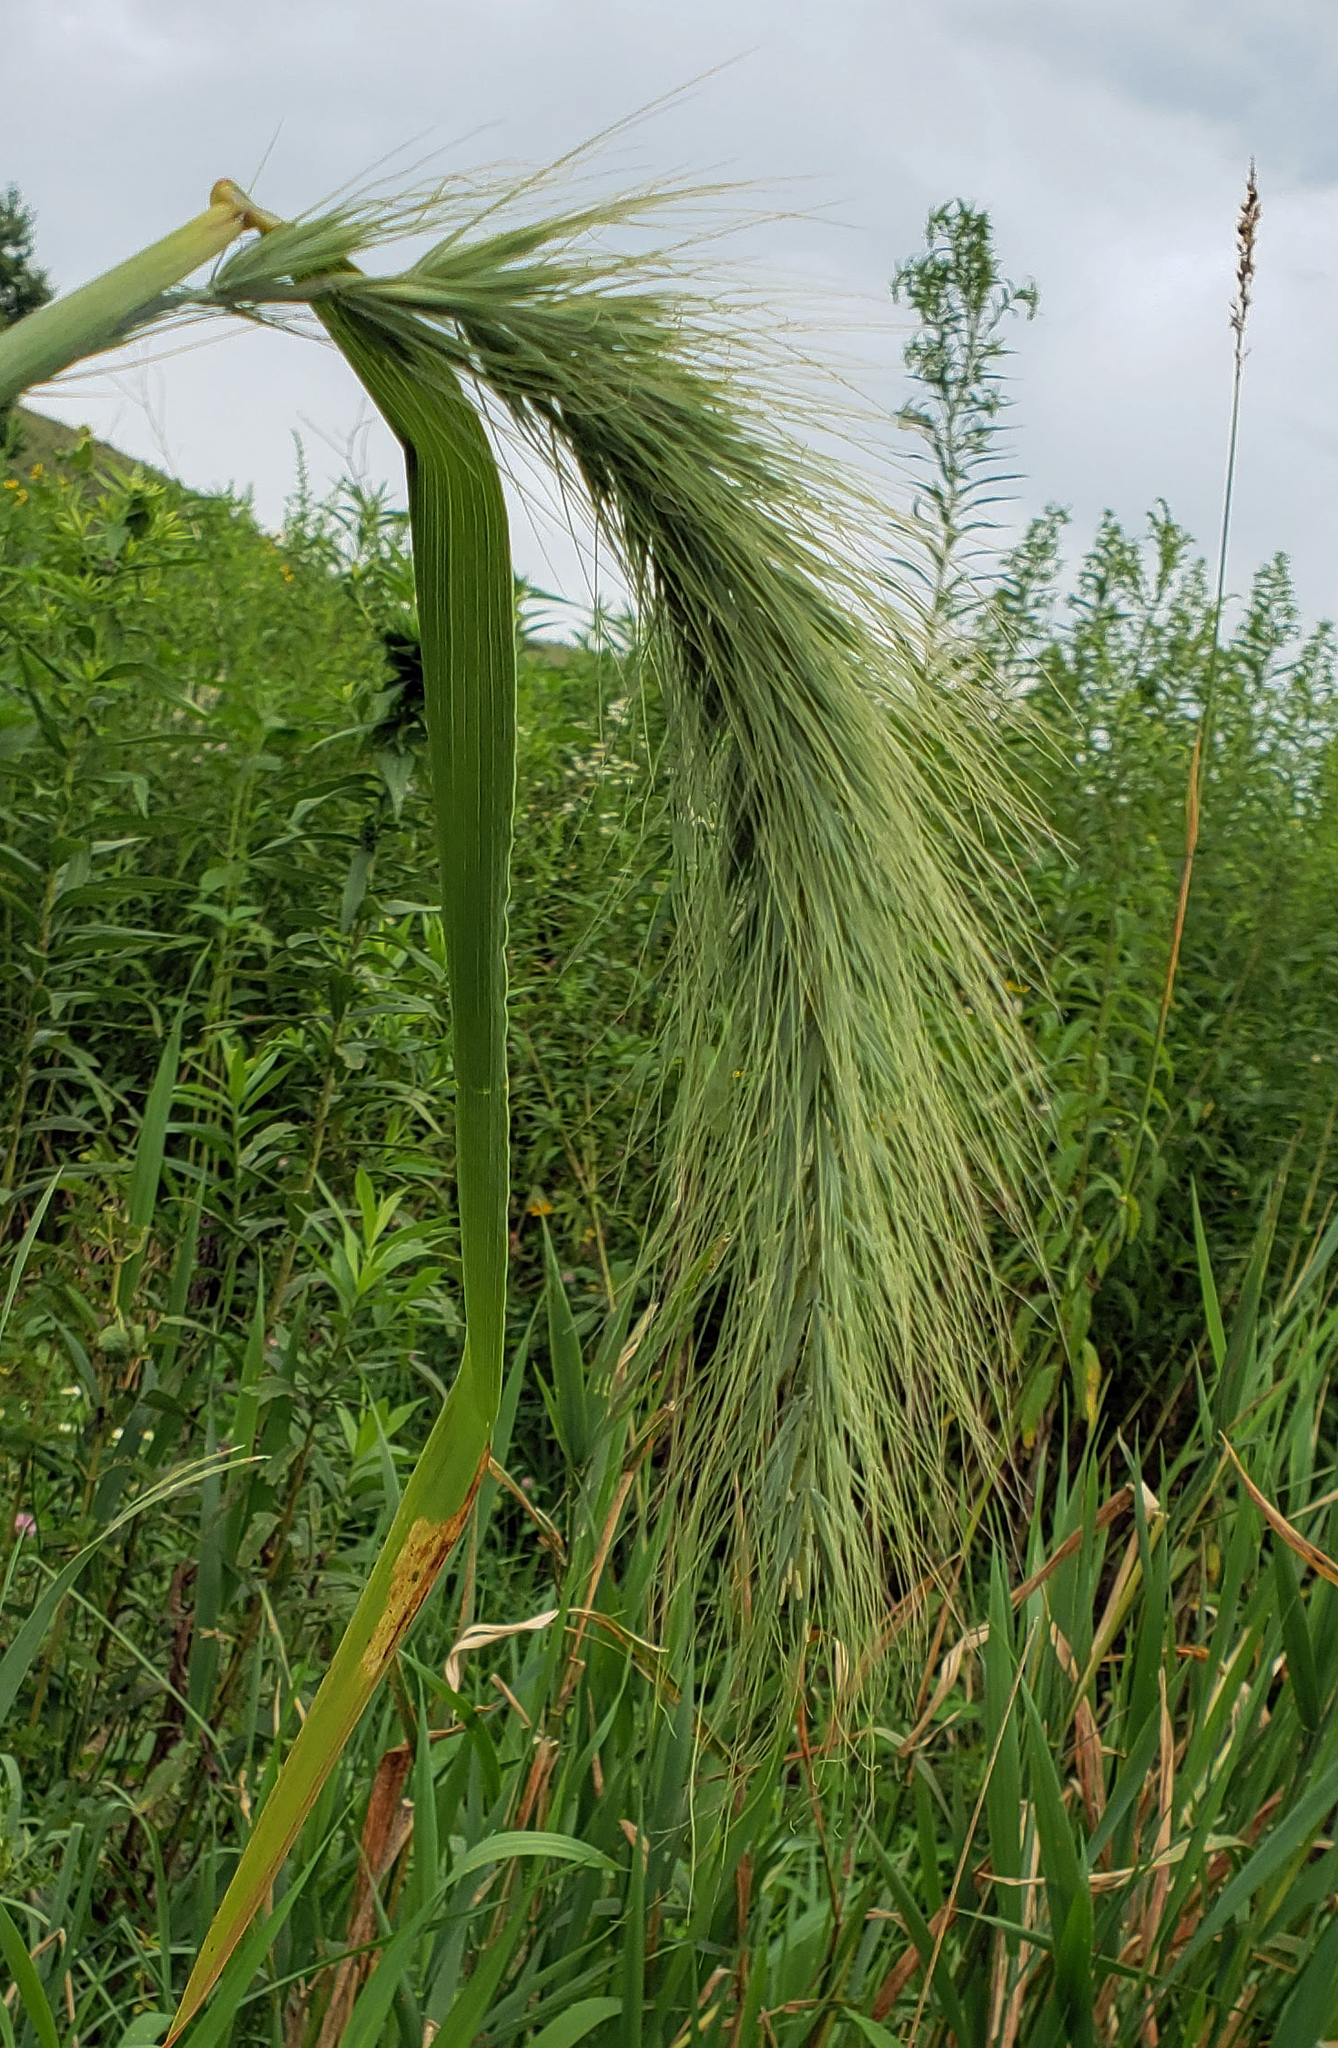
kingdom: Plantae
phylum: Tracheophyta
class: Liliopsida
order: Poales
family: Poaceae
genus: Elymus
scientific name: Elymus canadensis
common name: Canada wild rye
